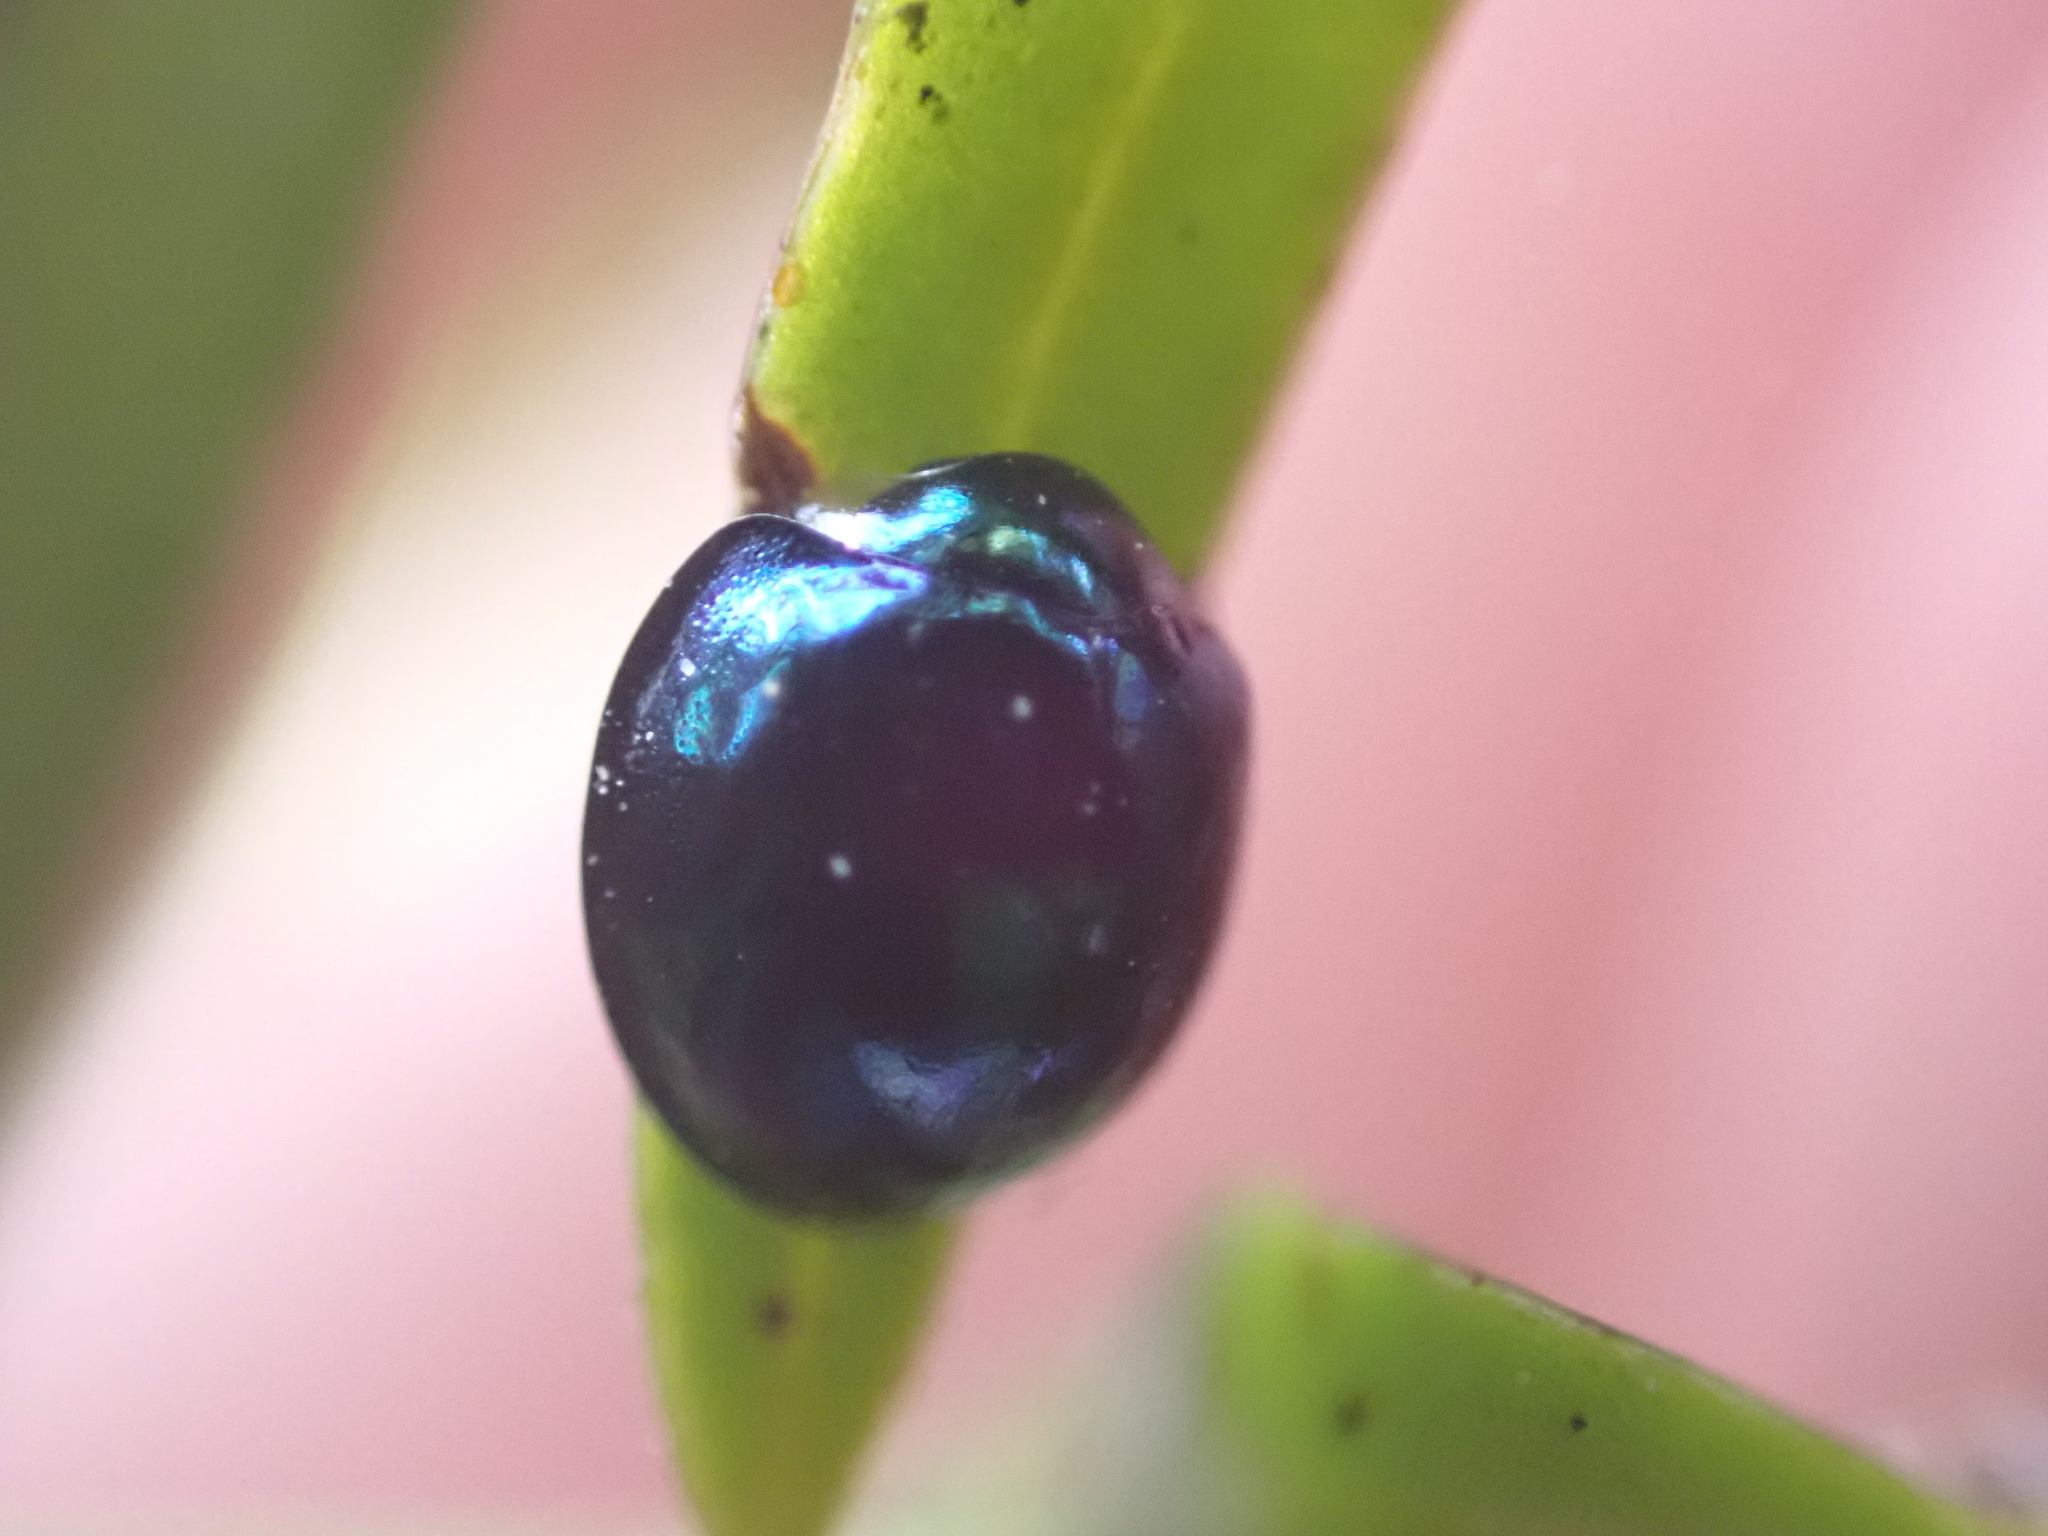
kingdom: Animalia
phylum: Arthropoda
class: Insecta
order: Coleoptera
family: Coccinellidae
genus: Halmus
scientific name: Halmus chalybeus
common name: Steel blue ladybird beetle
